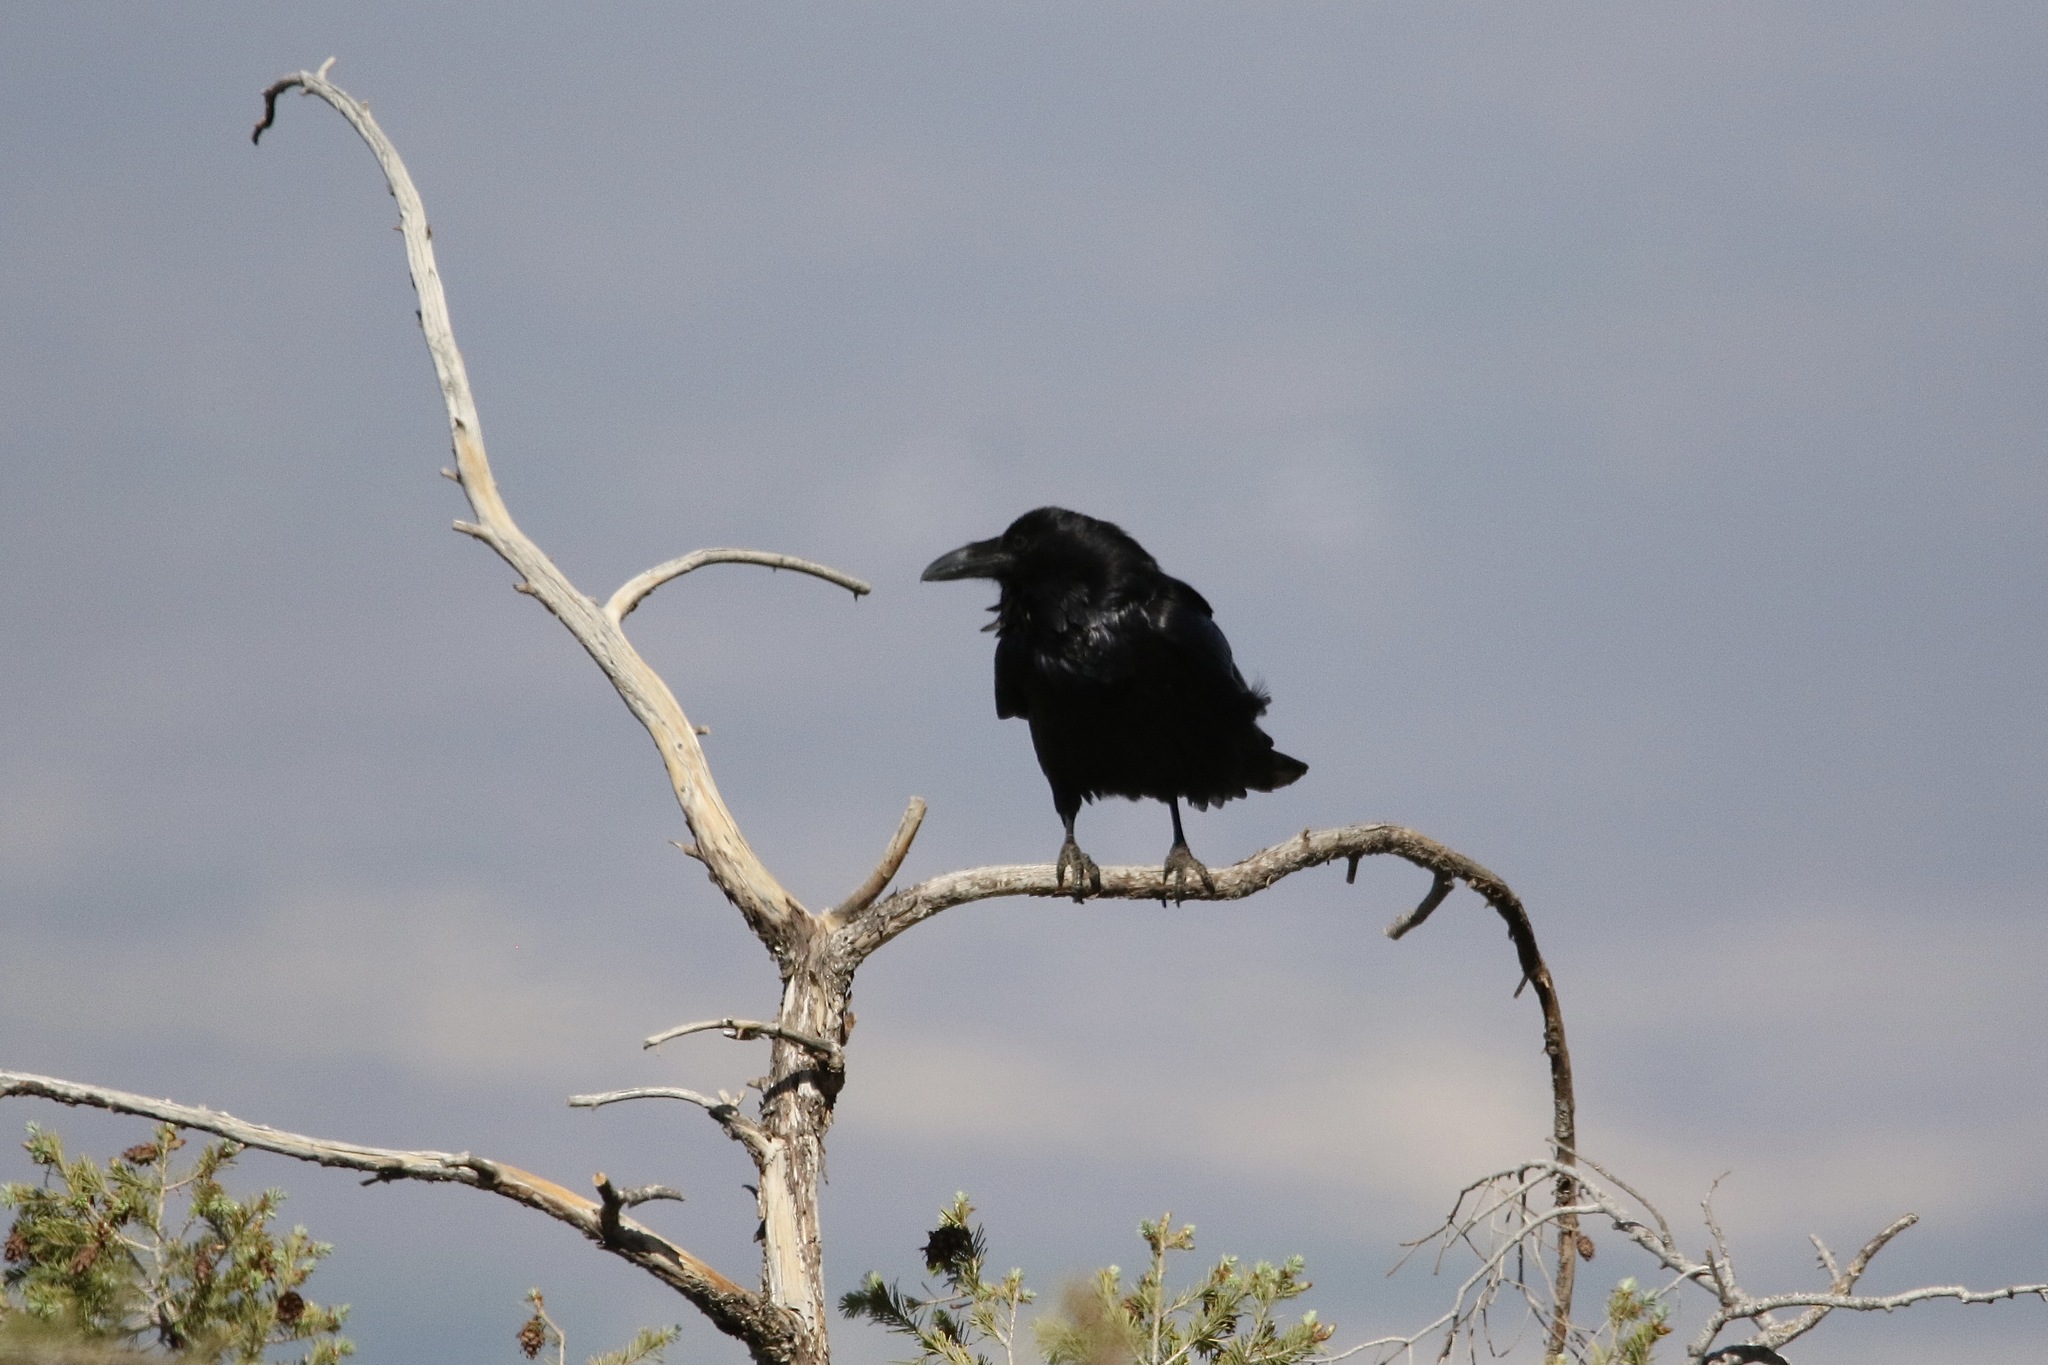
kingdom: Animalia
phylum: Chordata
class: Aves
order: Passeriformes
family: Corvidae
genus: Corvus
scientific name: Corvus cryptoleucus
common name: Chihuahuan raven
